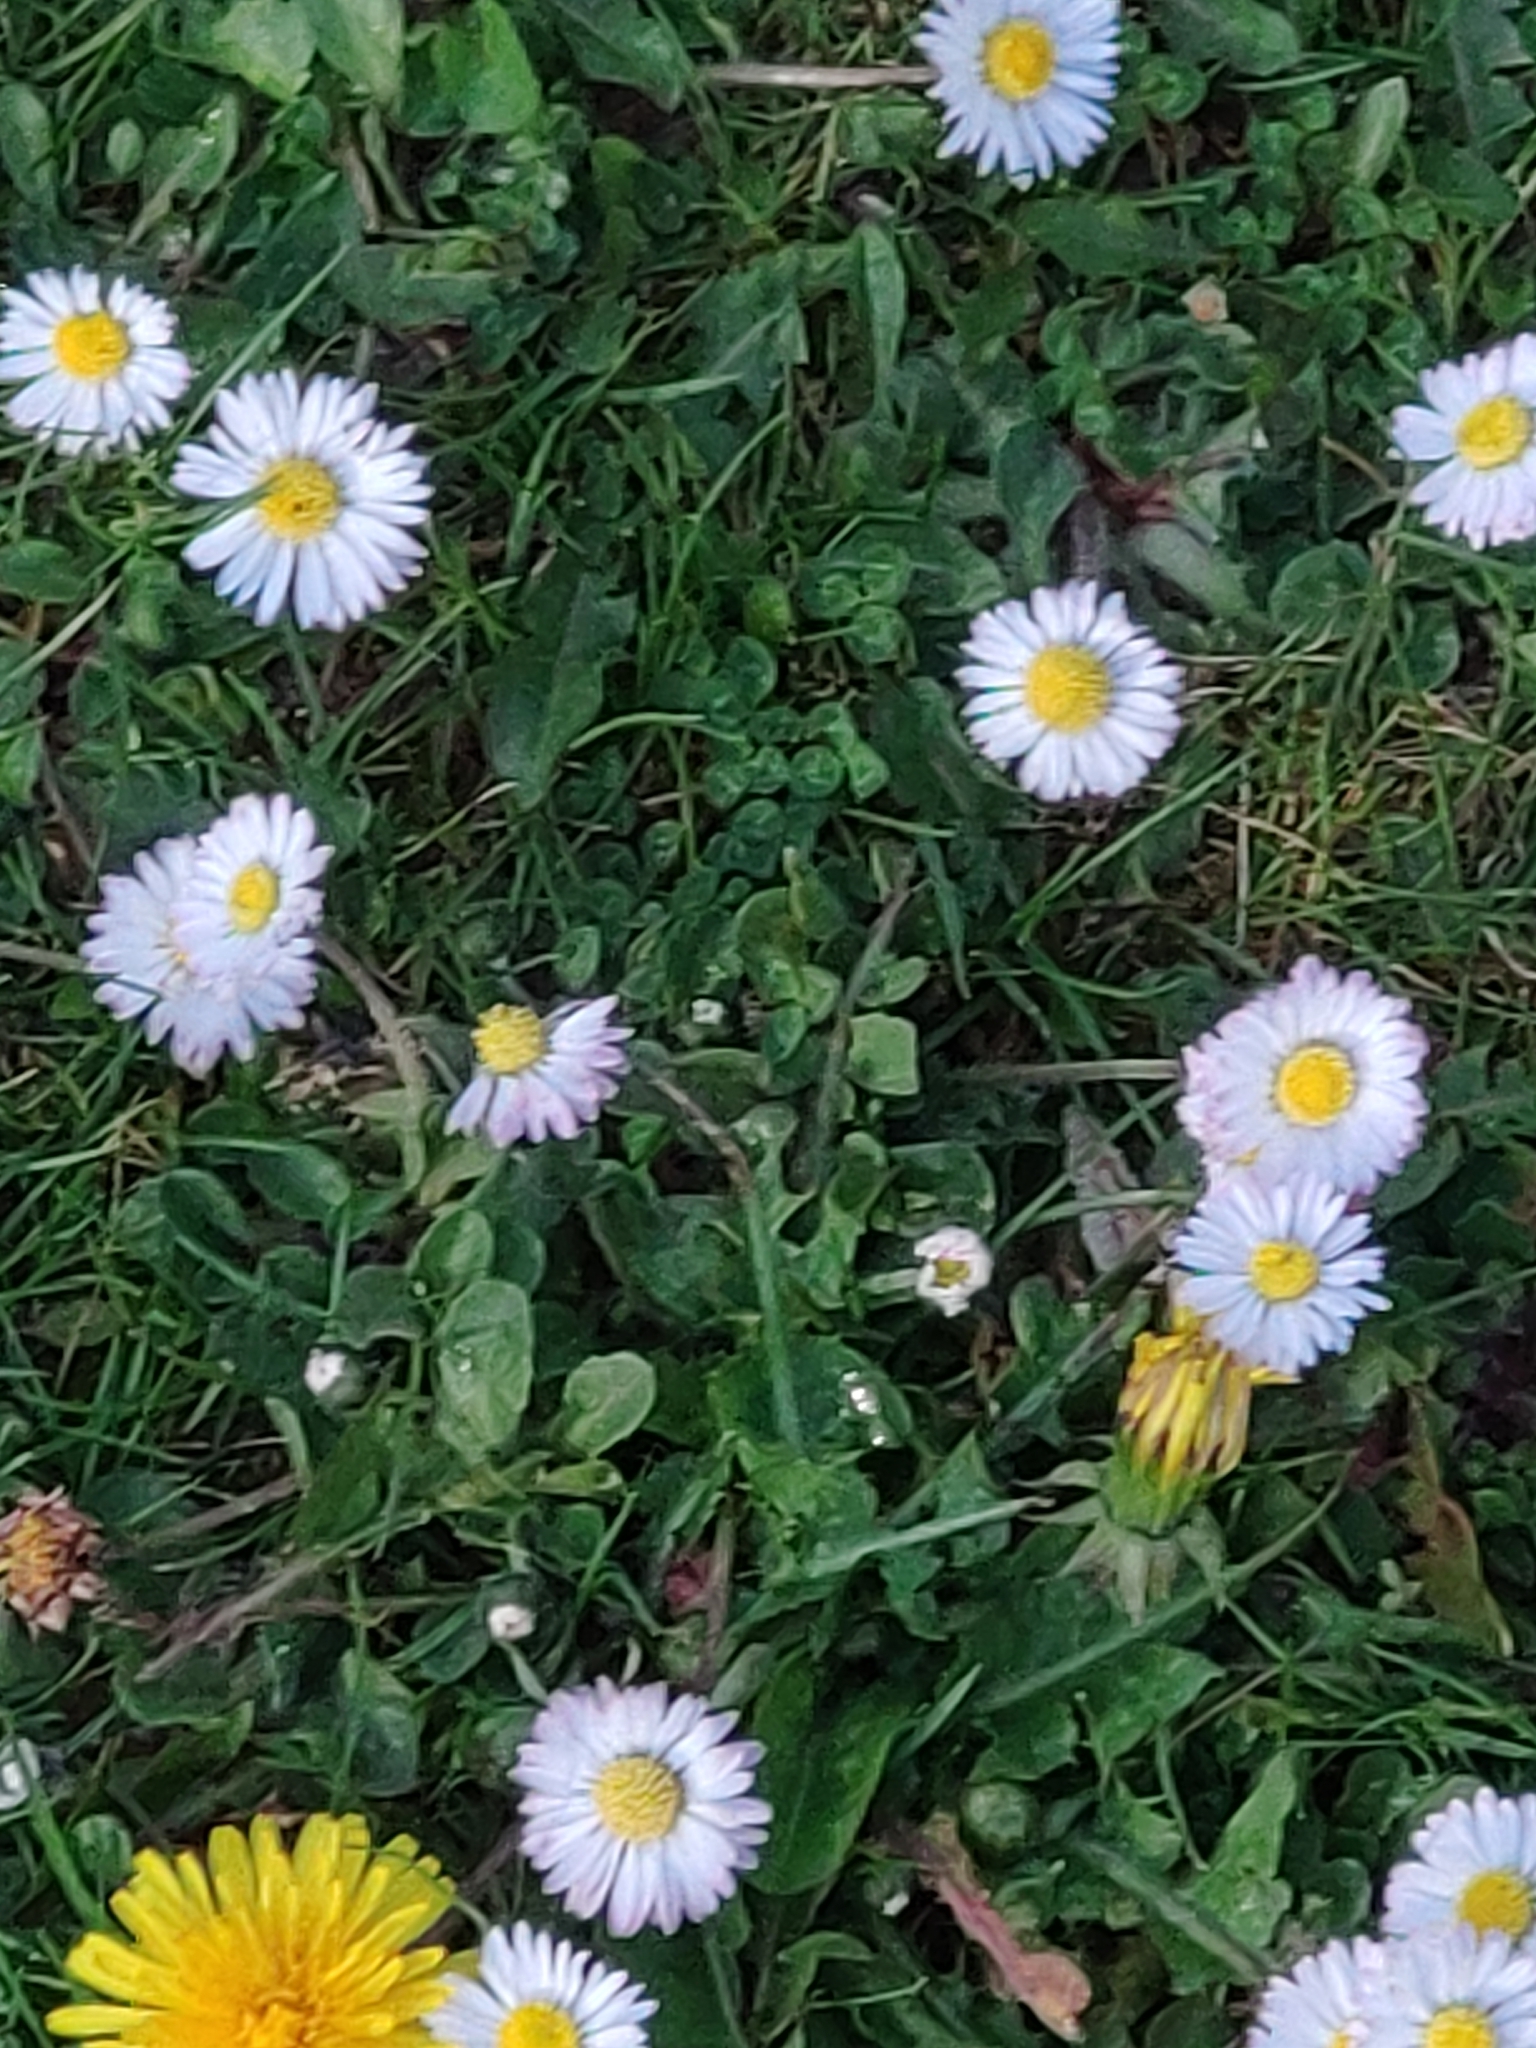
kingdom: Plantae
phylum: Tracheophyta
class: Magnoliopsida
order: Asterales
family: Asteraceae
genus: Bellis
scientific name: Bellis perennis
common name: Lawndaisy
